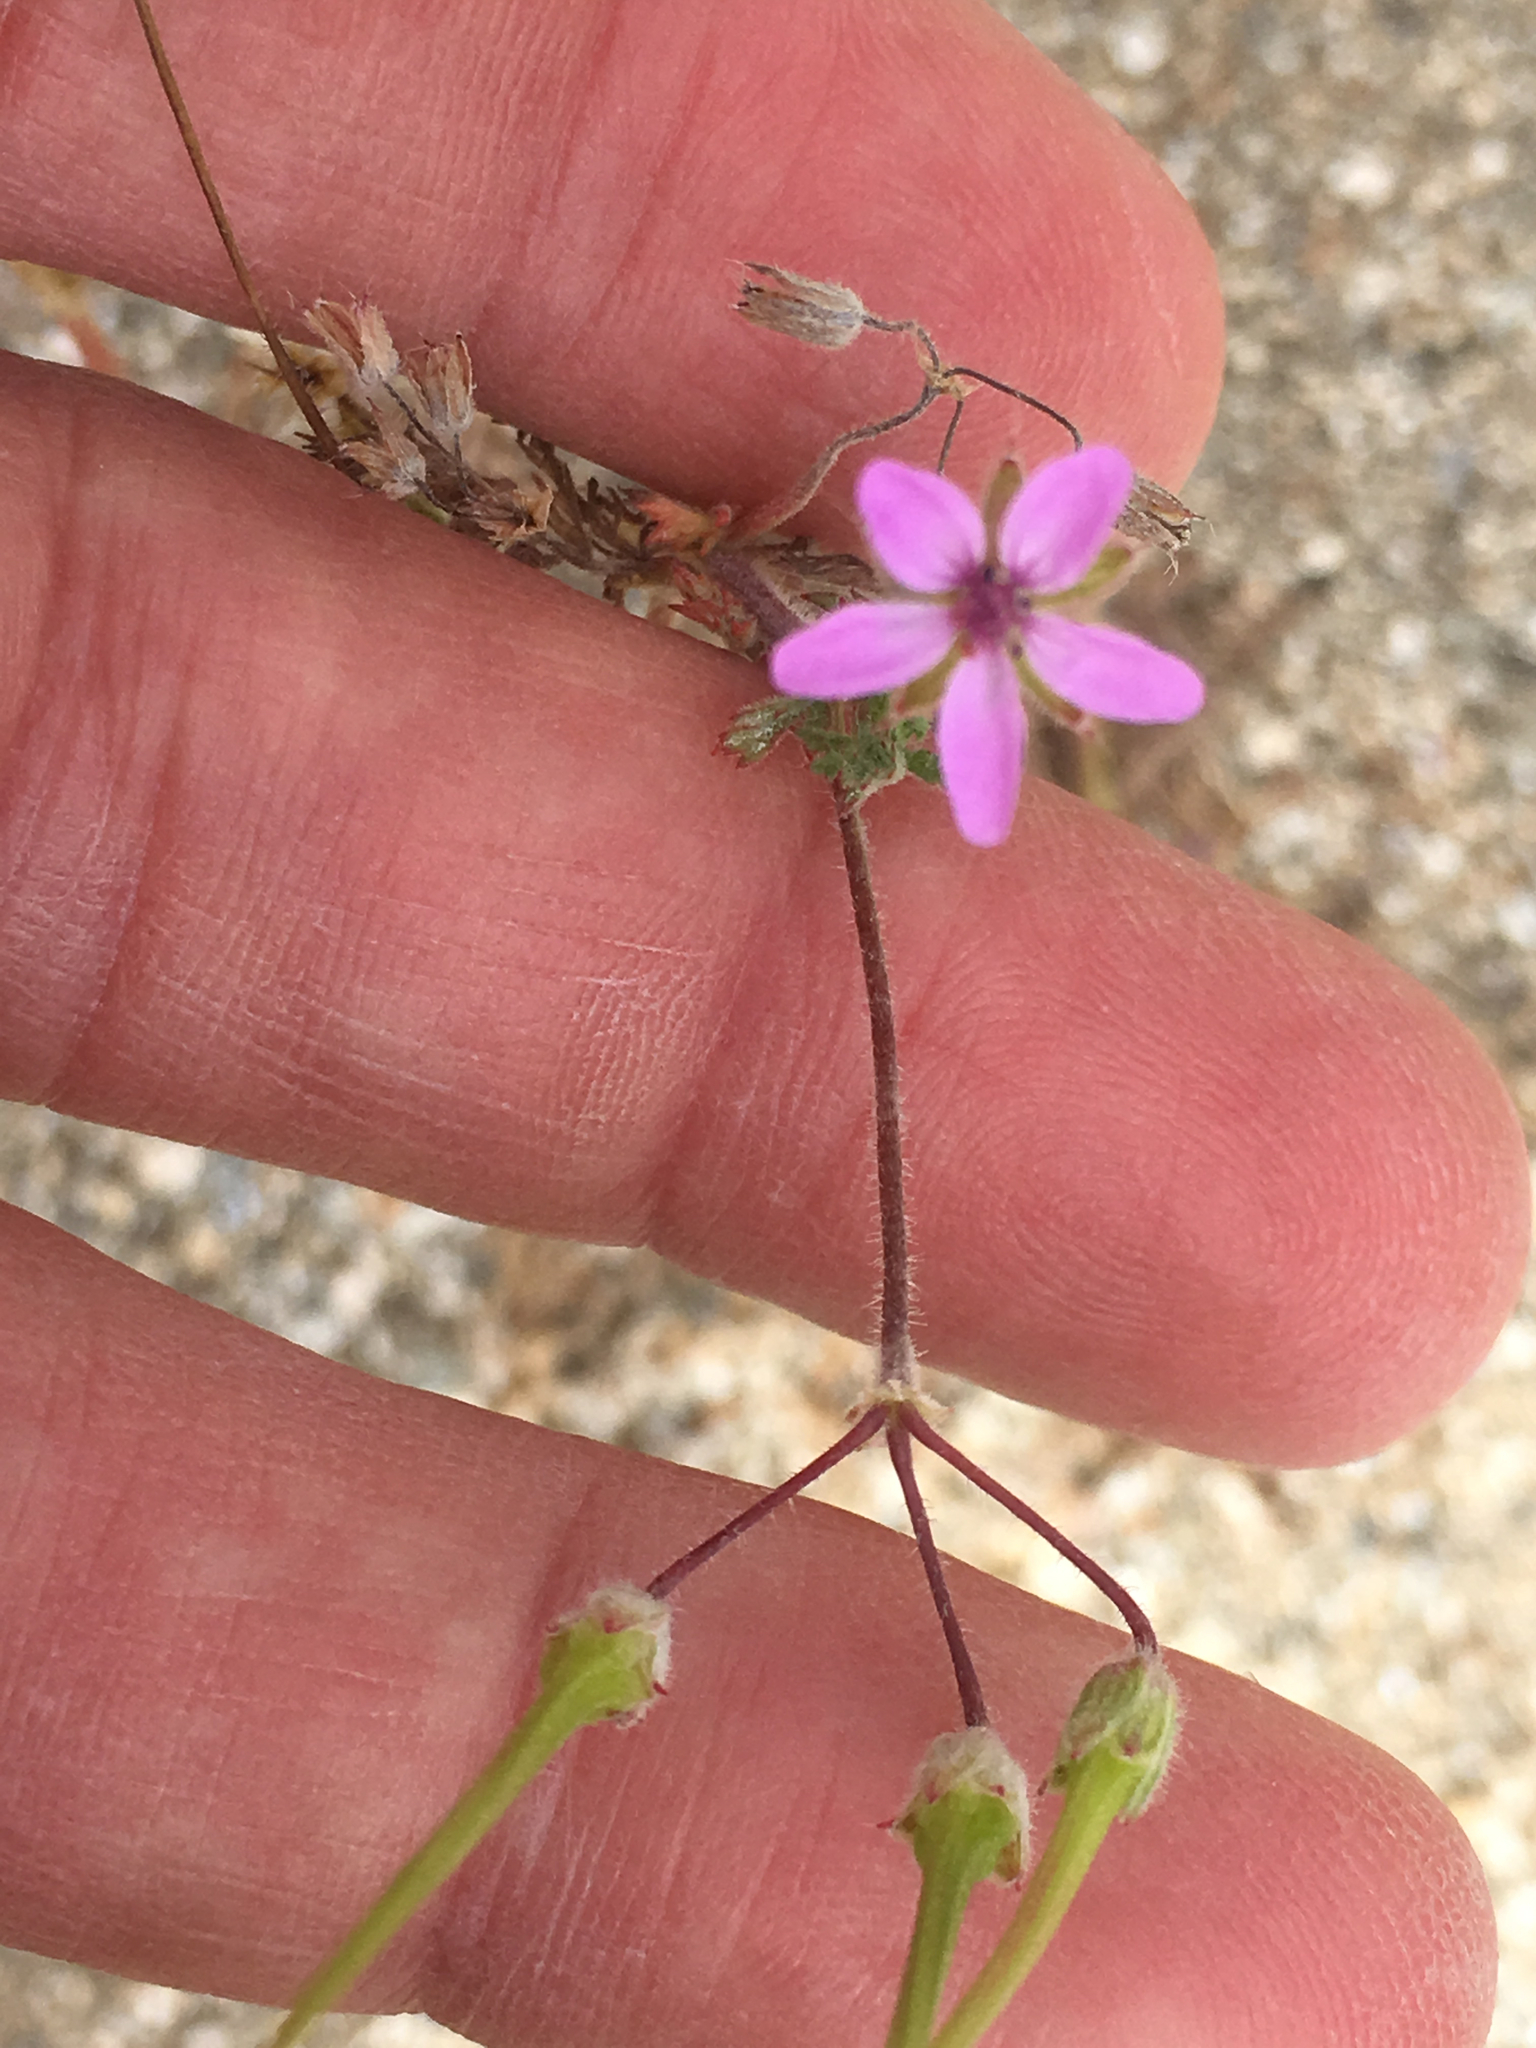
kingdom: Plantae
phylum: Tracheophyta
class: Magnoliopsida
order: Geraniales
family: Geraniaceae
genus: Erodium
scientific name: Erodium cicutarium
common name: Common stork's-bill
